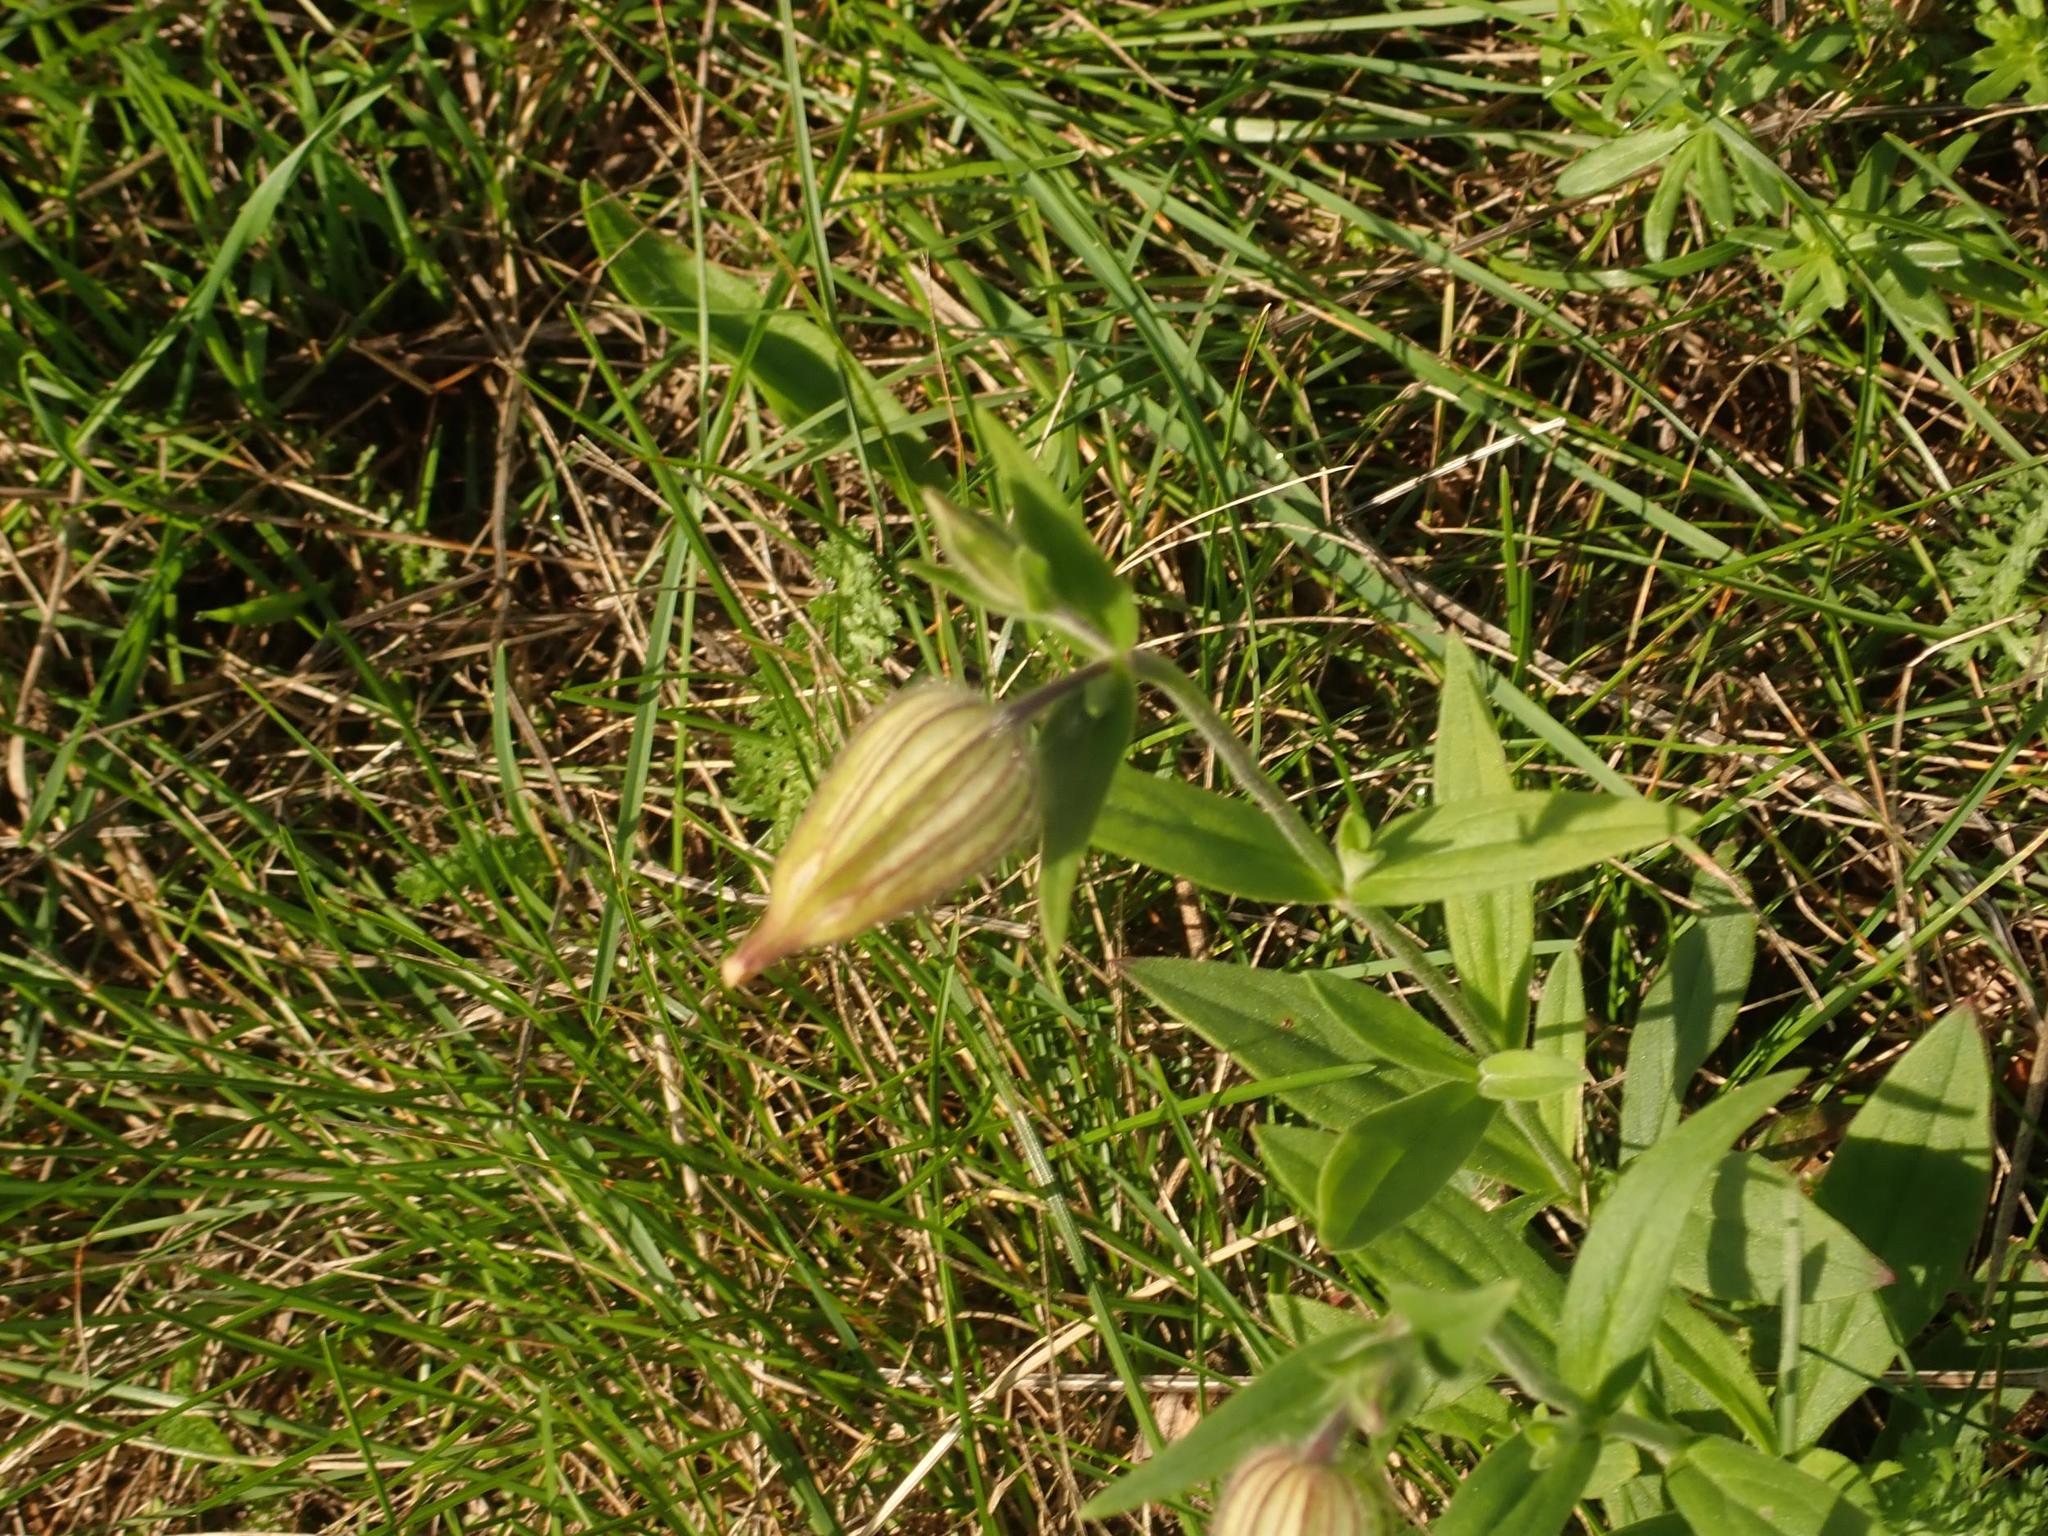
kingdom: Plantae
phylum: Tracheophyta
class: Magnoliopsida
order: Caryophyllales
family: Caryophyllaceae
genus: Silene
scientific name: Silene latifolia
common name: White campion
